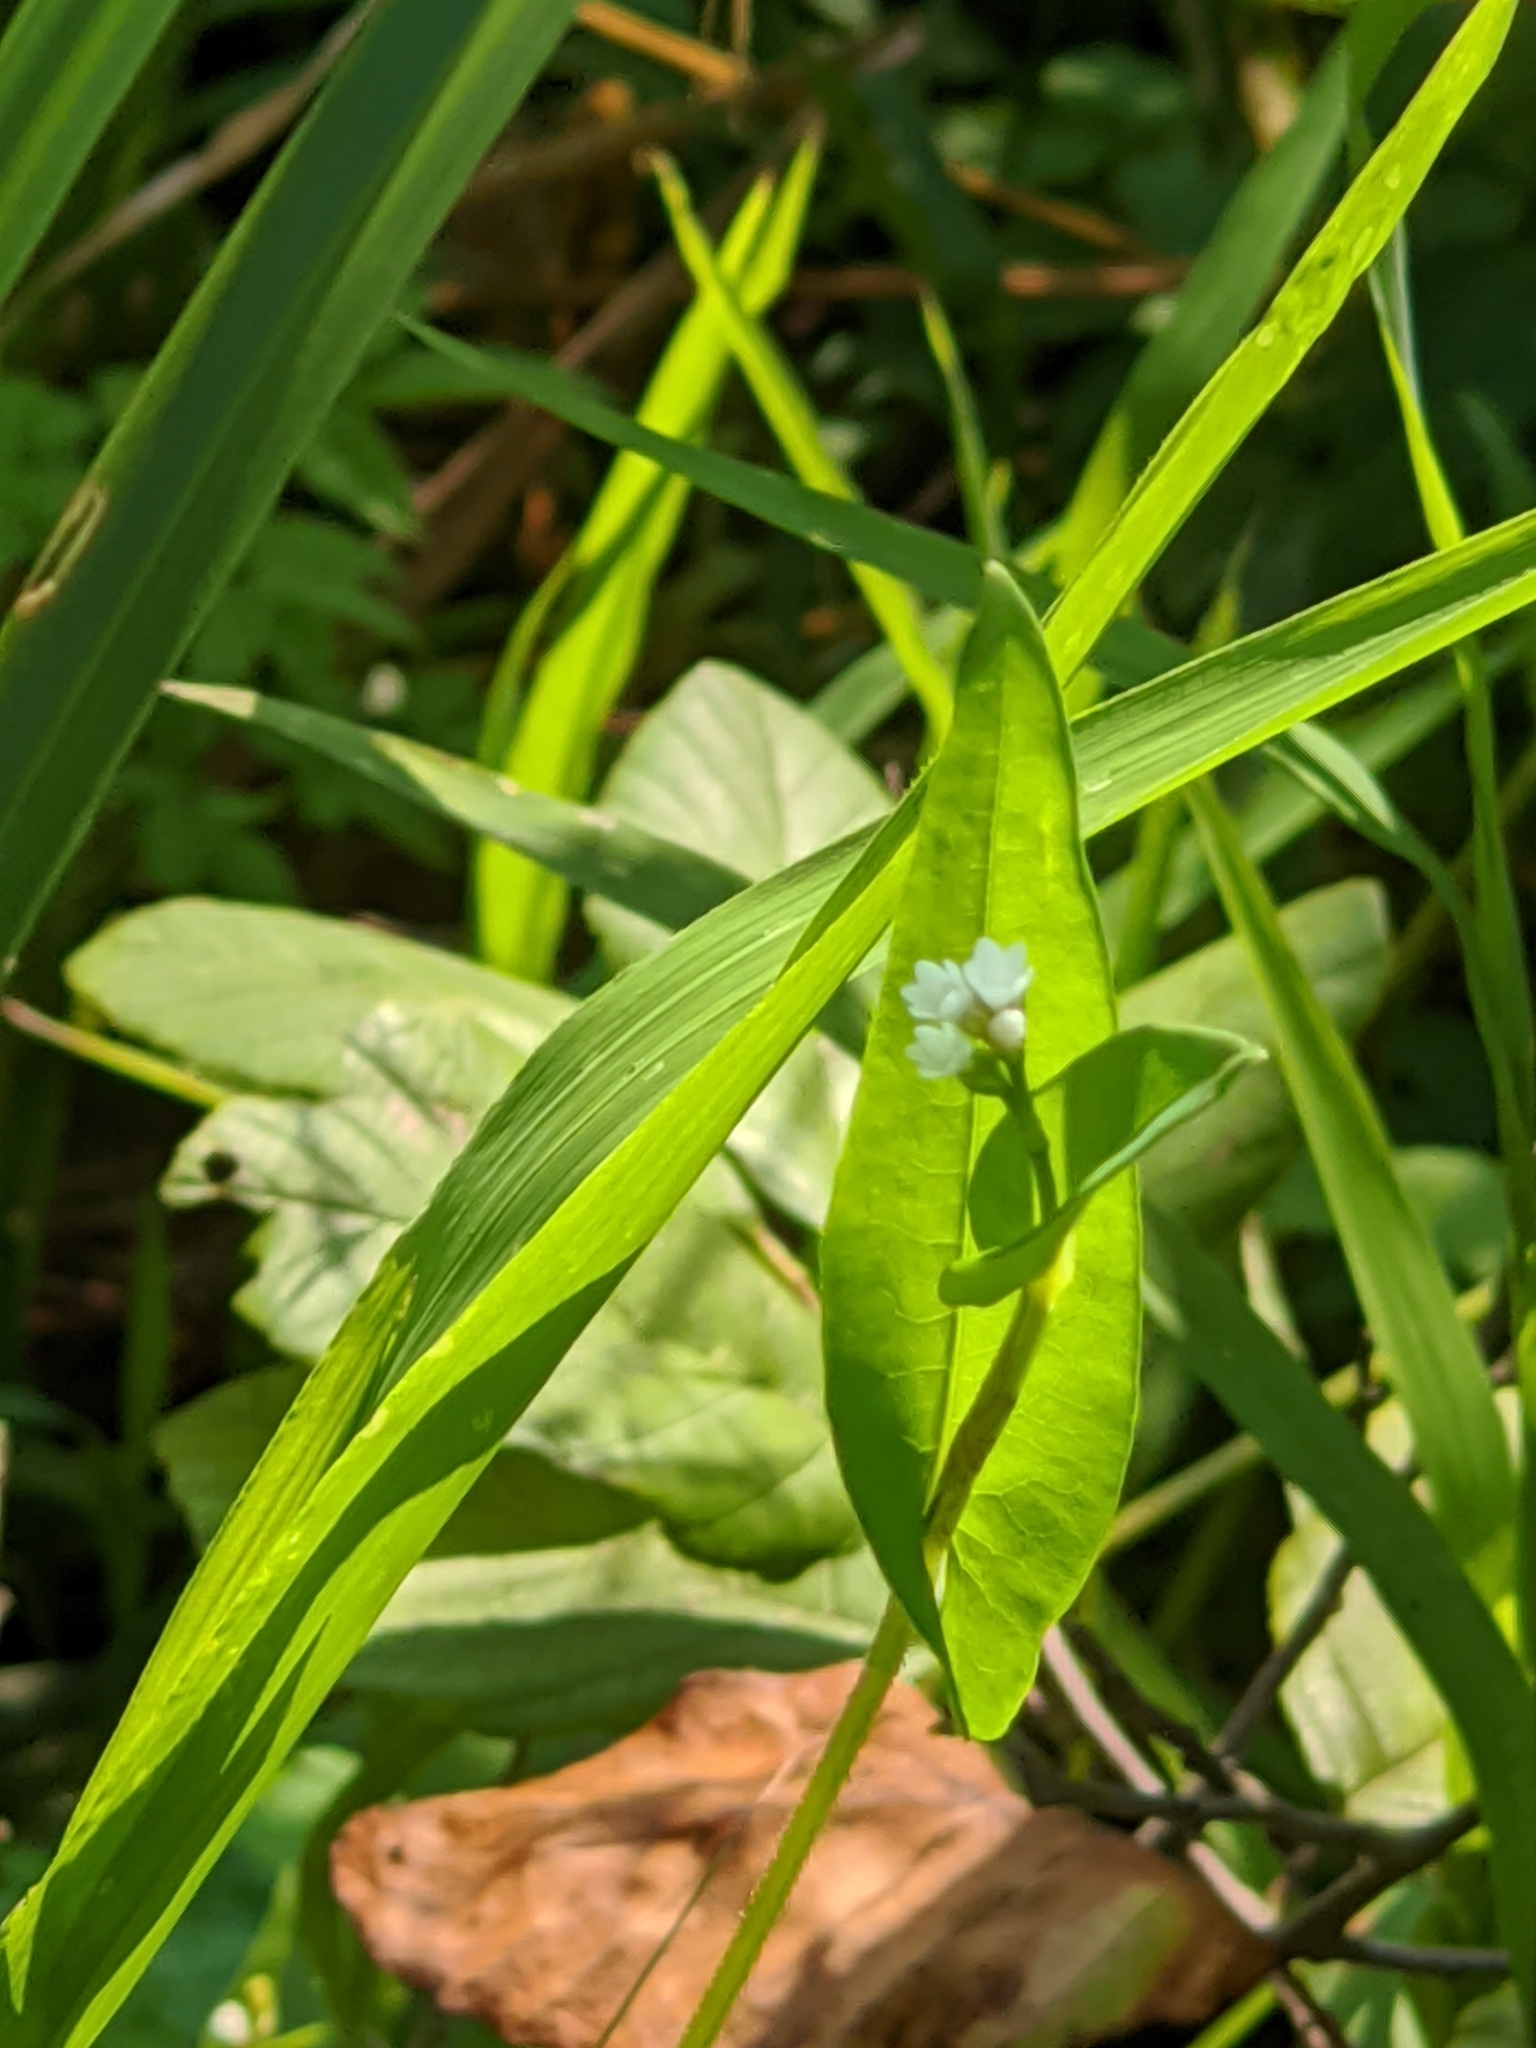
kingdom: Plantae
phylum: Tracheophyta
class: Magnoliopsida
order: Caryophyllales
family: Polygonaceae
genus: Persicaria
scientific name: Persicaria sagittata
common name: American tearthumb
